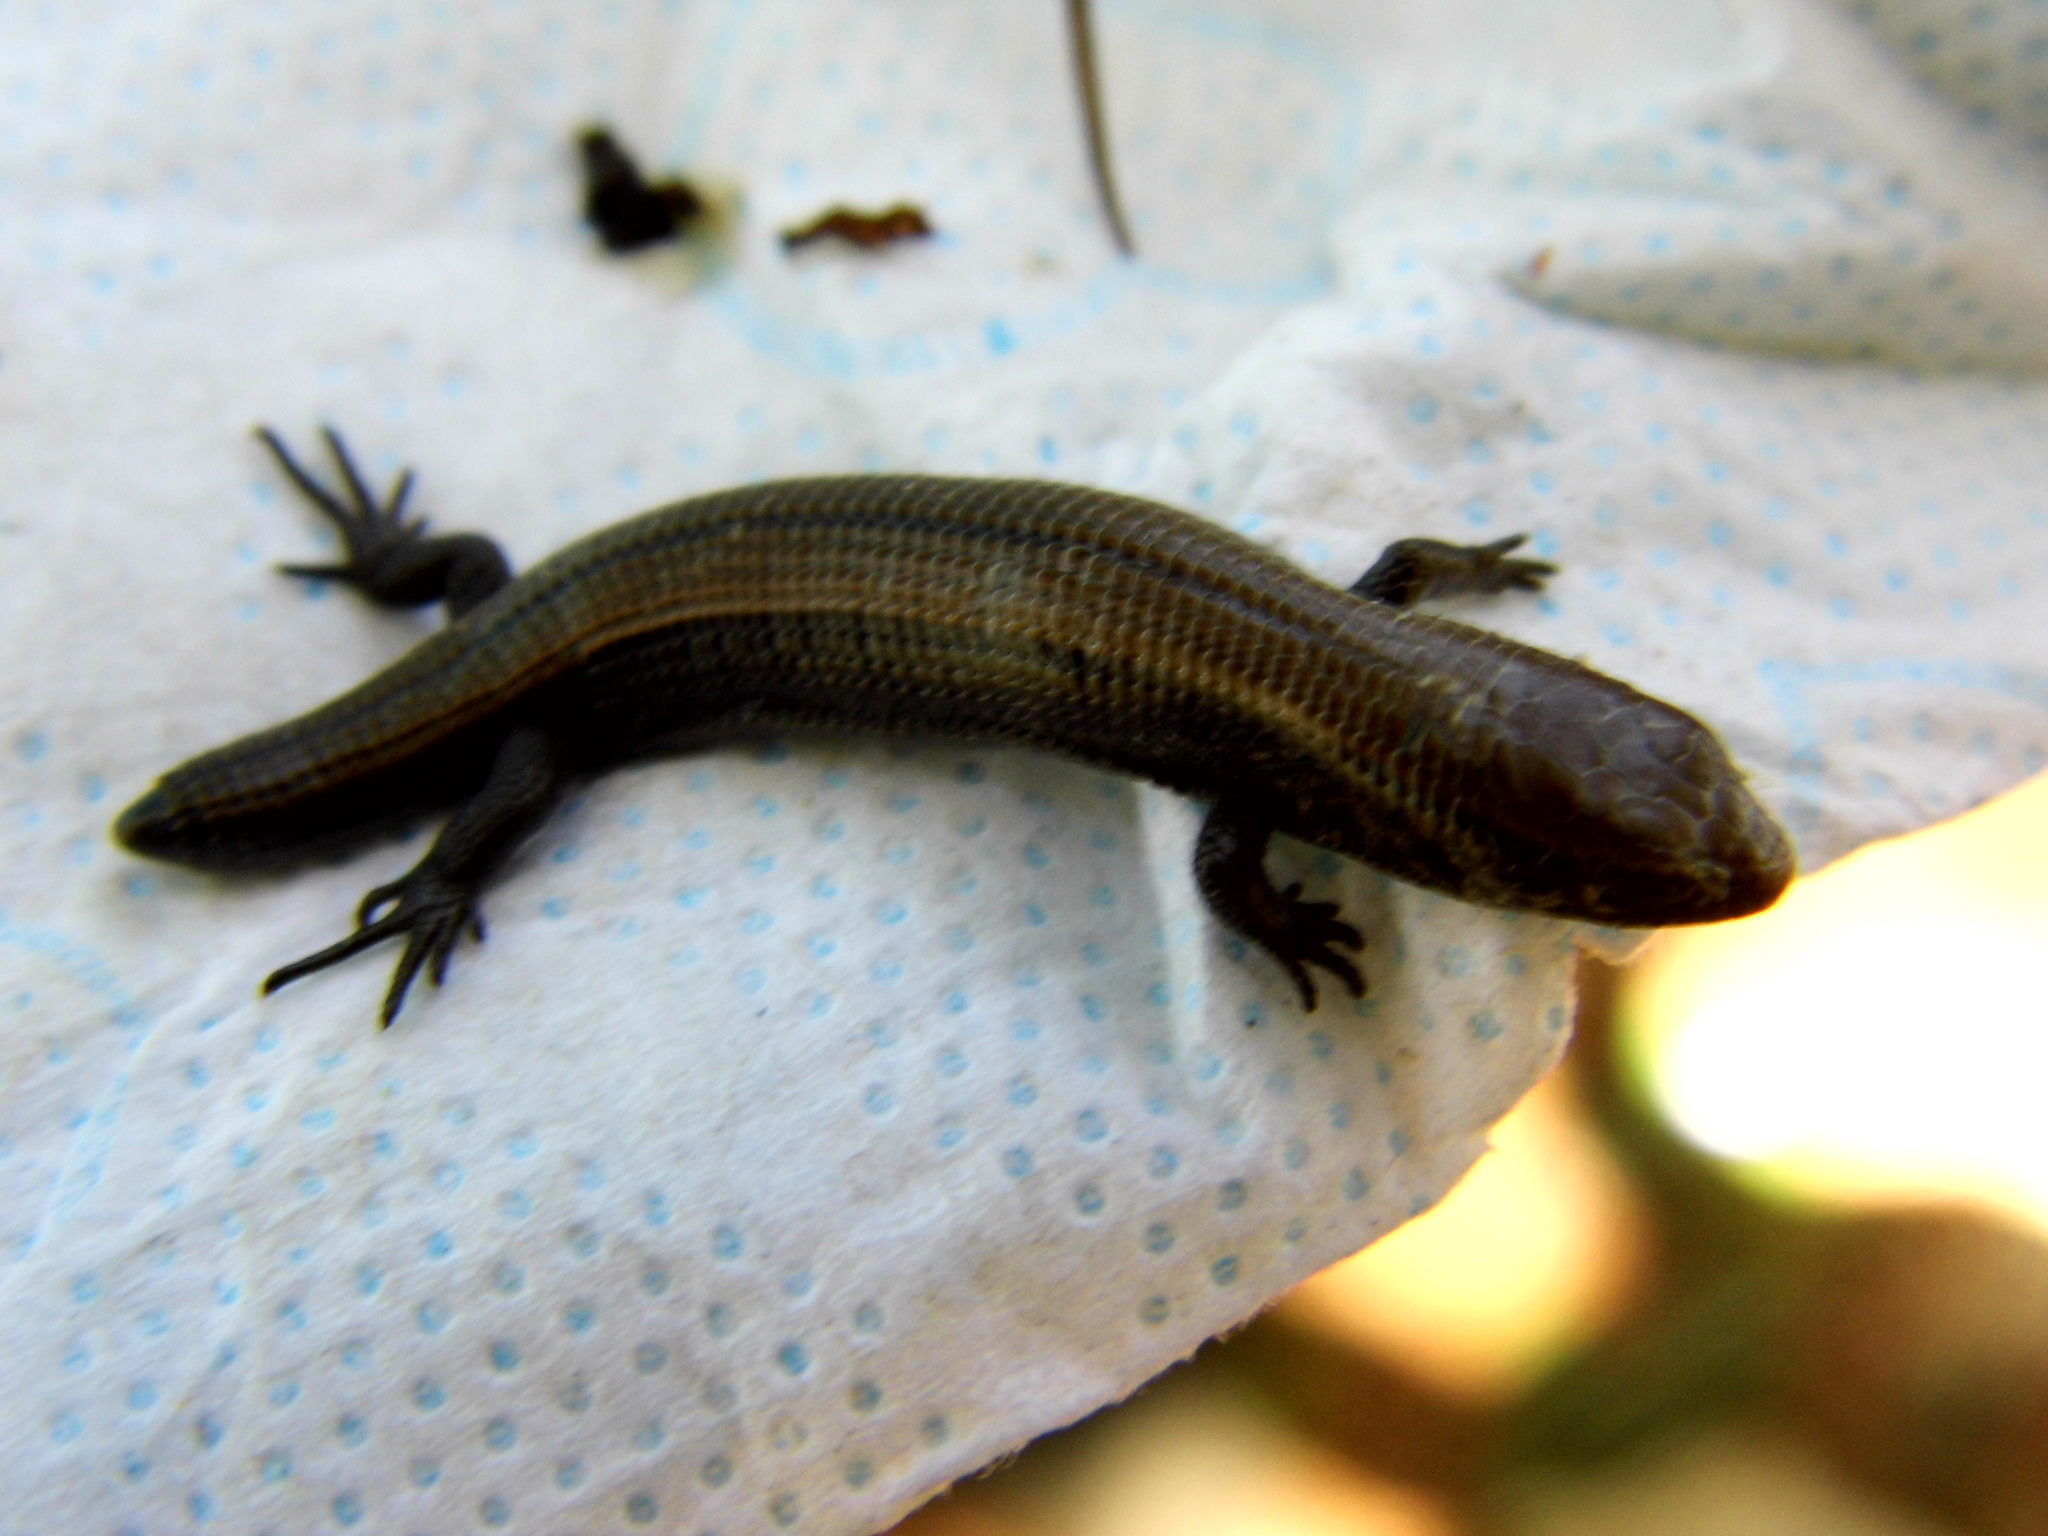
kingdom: Animalia
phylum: Chordata
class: Squamata
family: Anguidae
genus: Abronia
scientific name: Abronia viridiflava
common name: Dwarf alligator lizard
